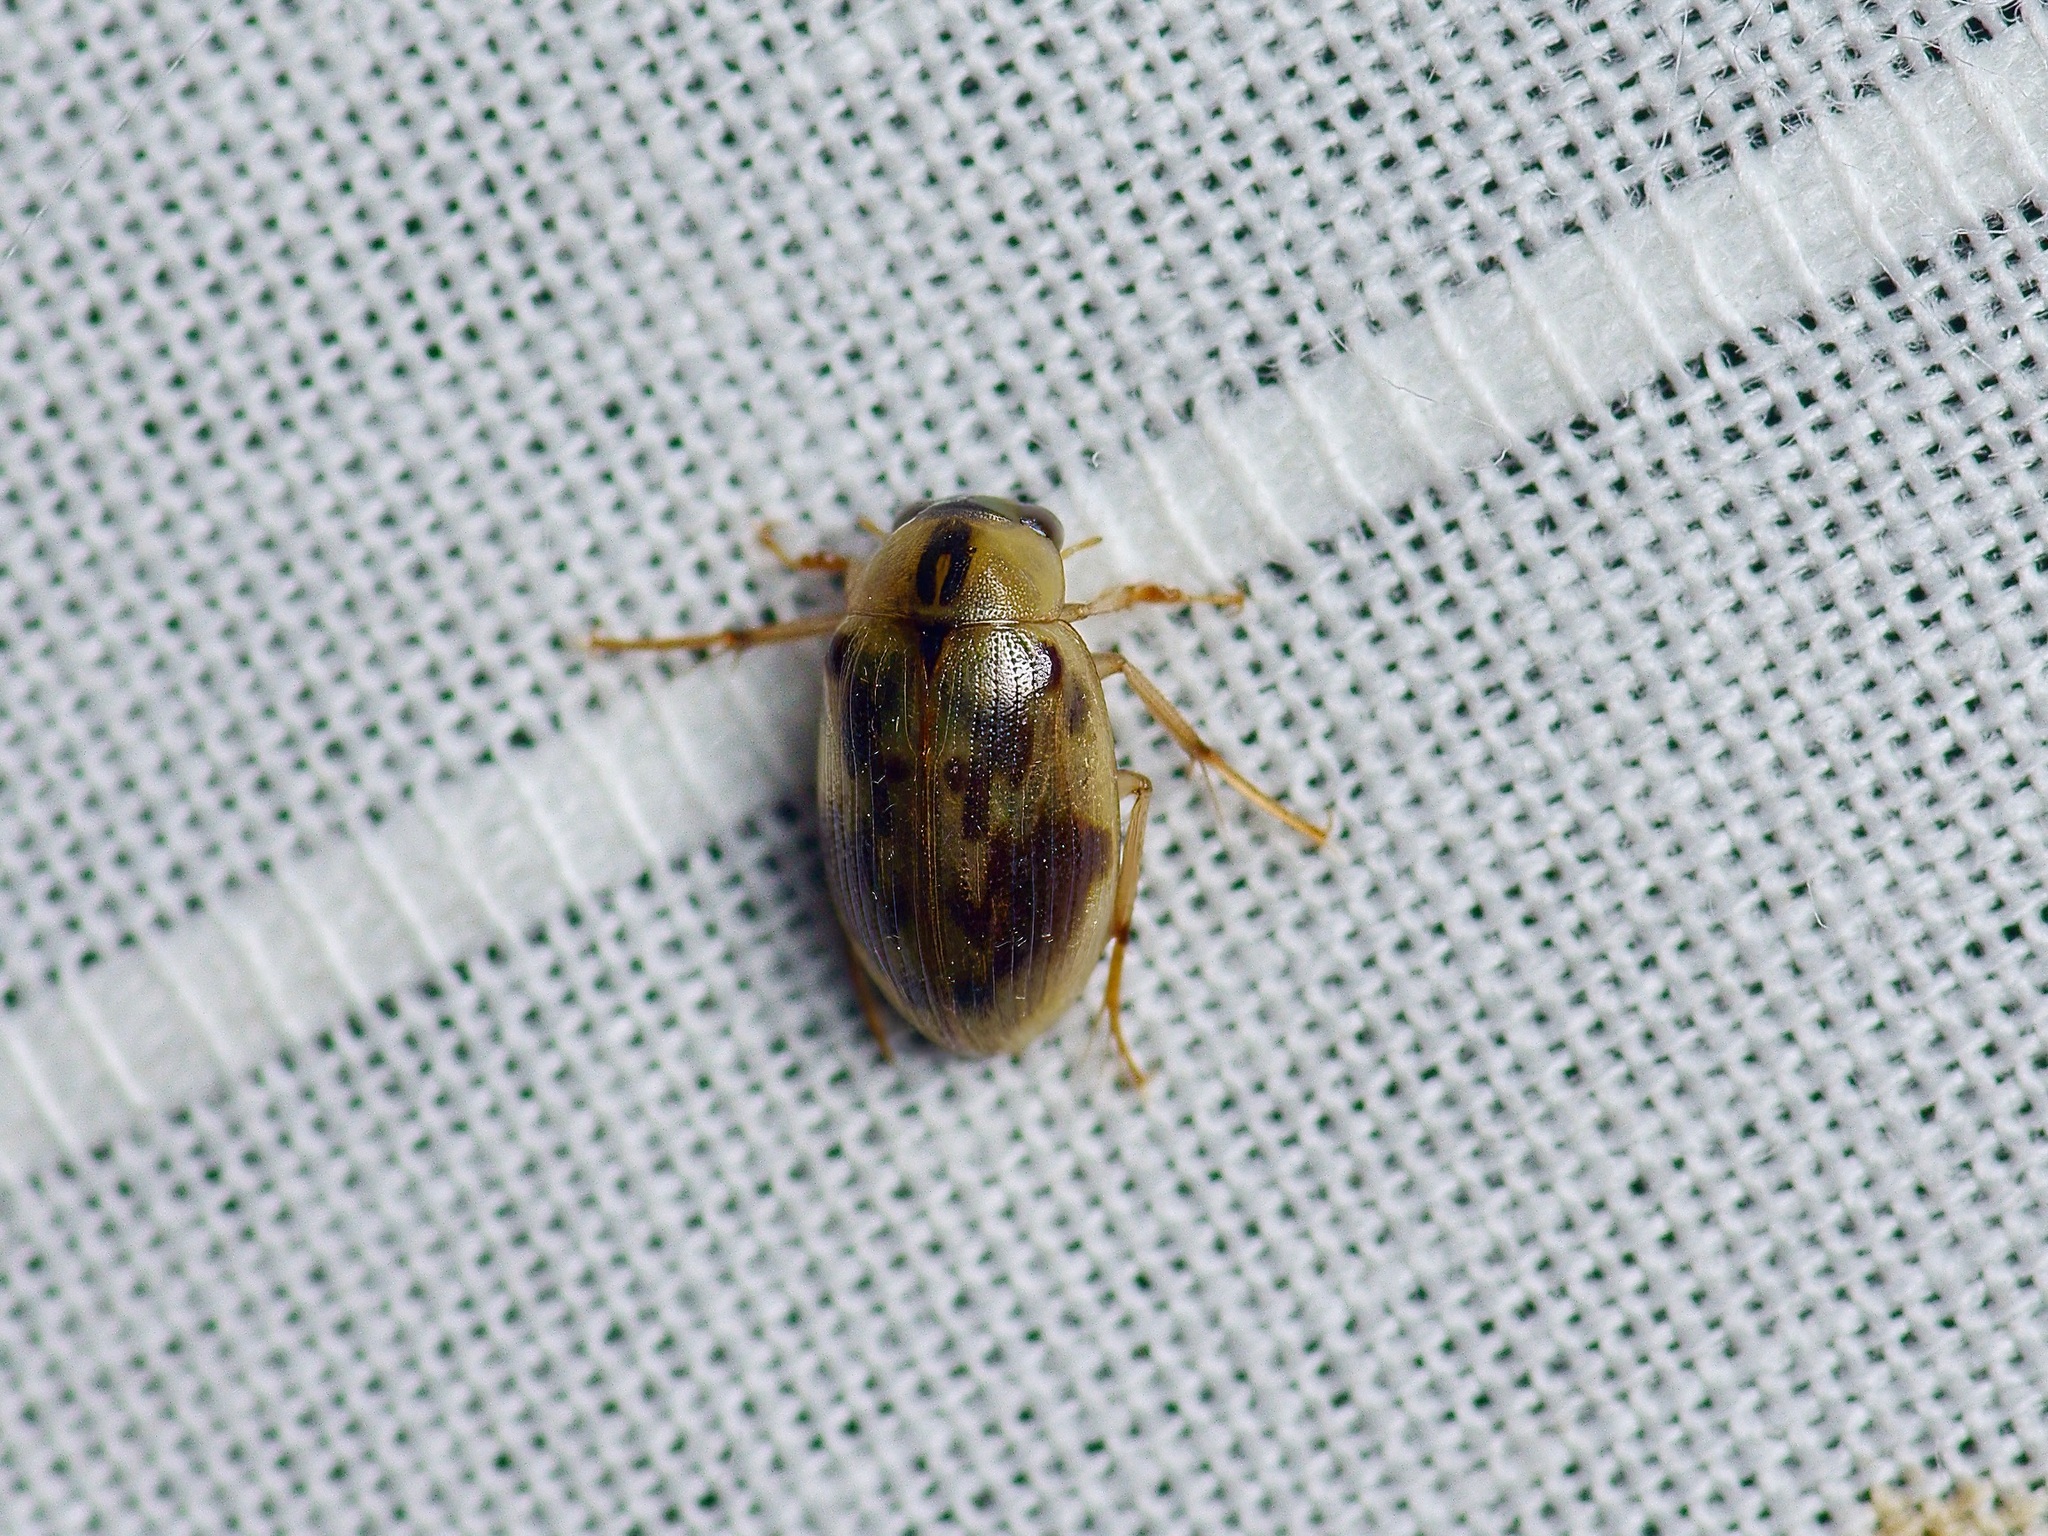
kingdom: Animalia
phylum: Arthropoda
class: Insecta
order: Coleoptera
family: Hydrophilidae
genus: Berosus
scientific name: Berosus miles
